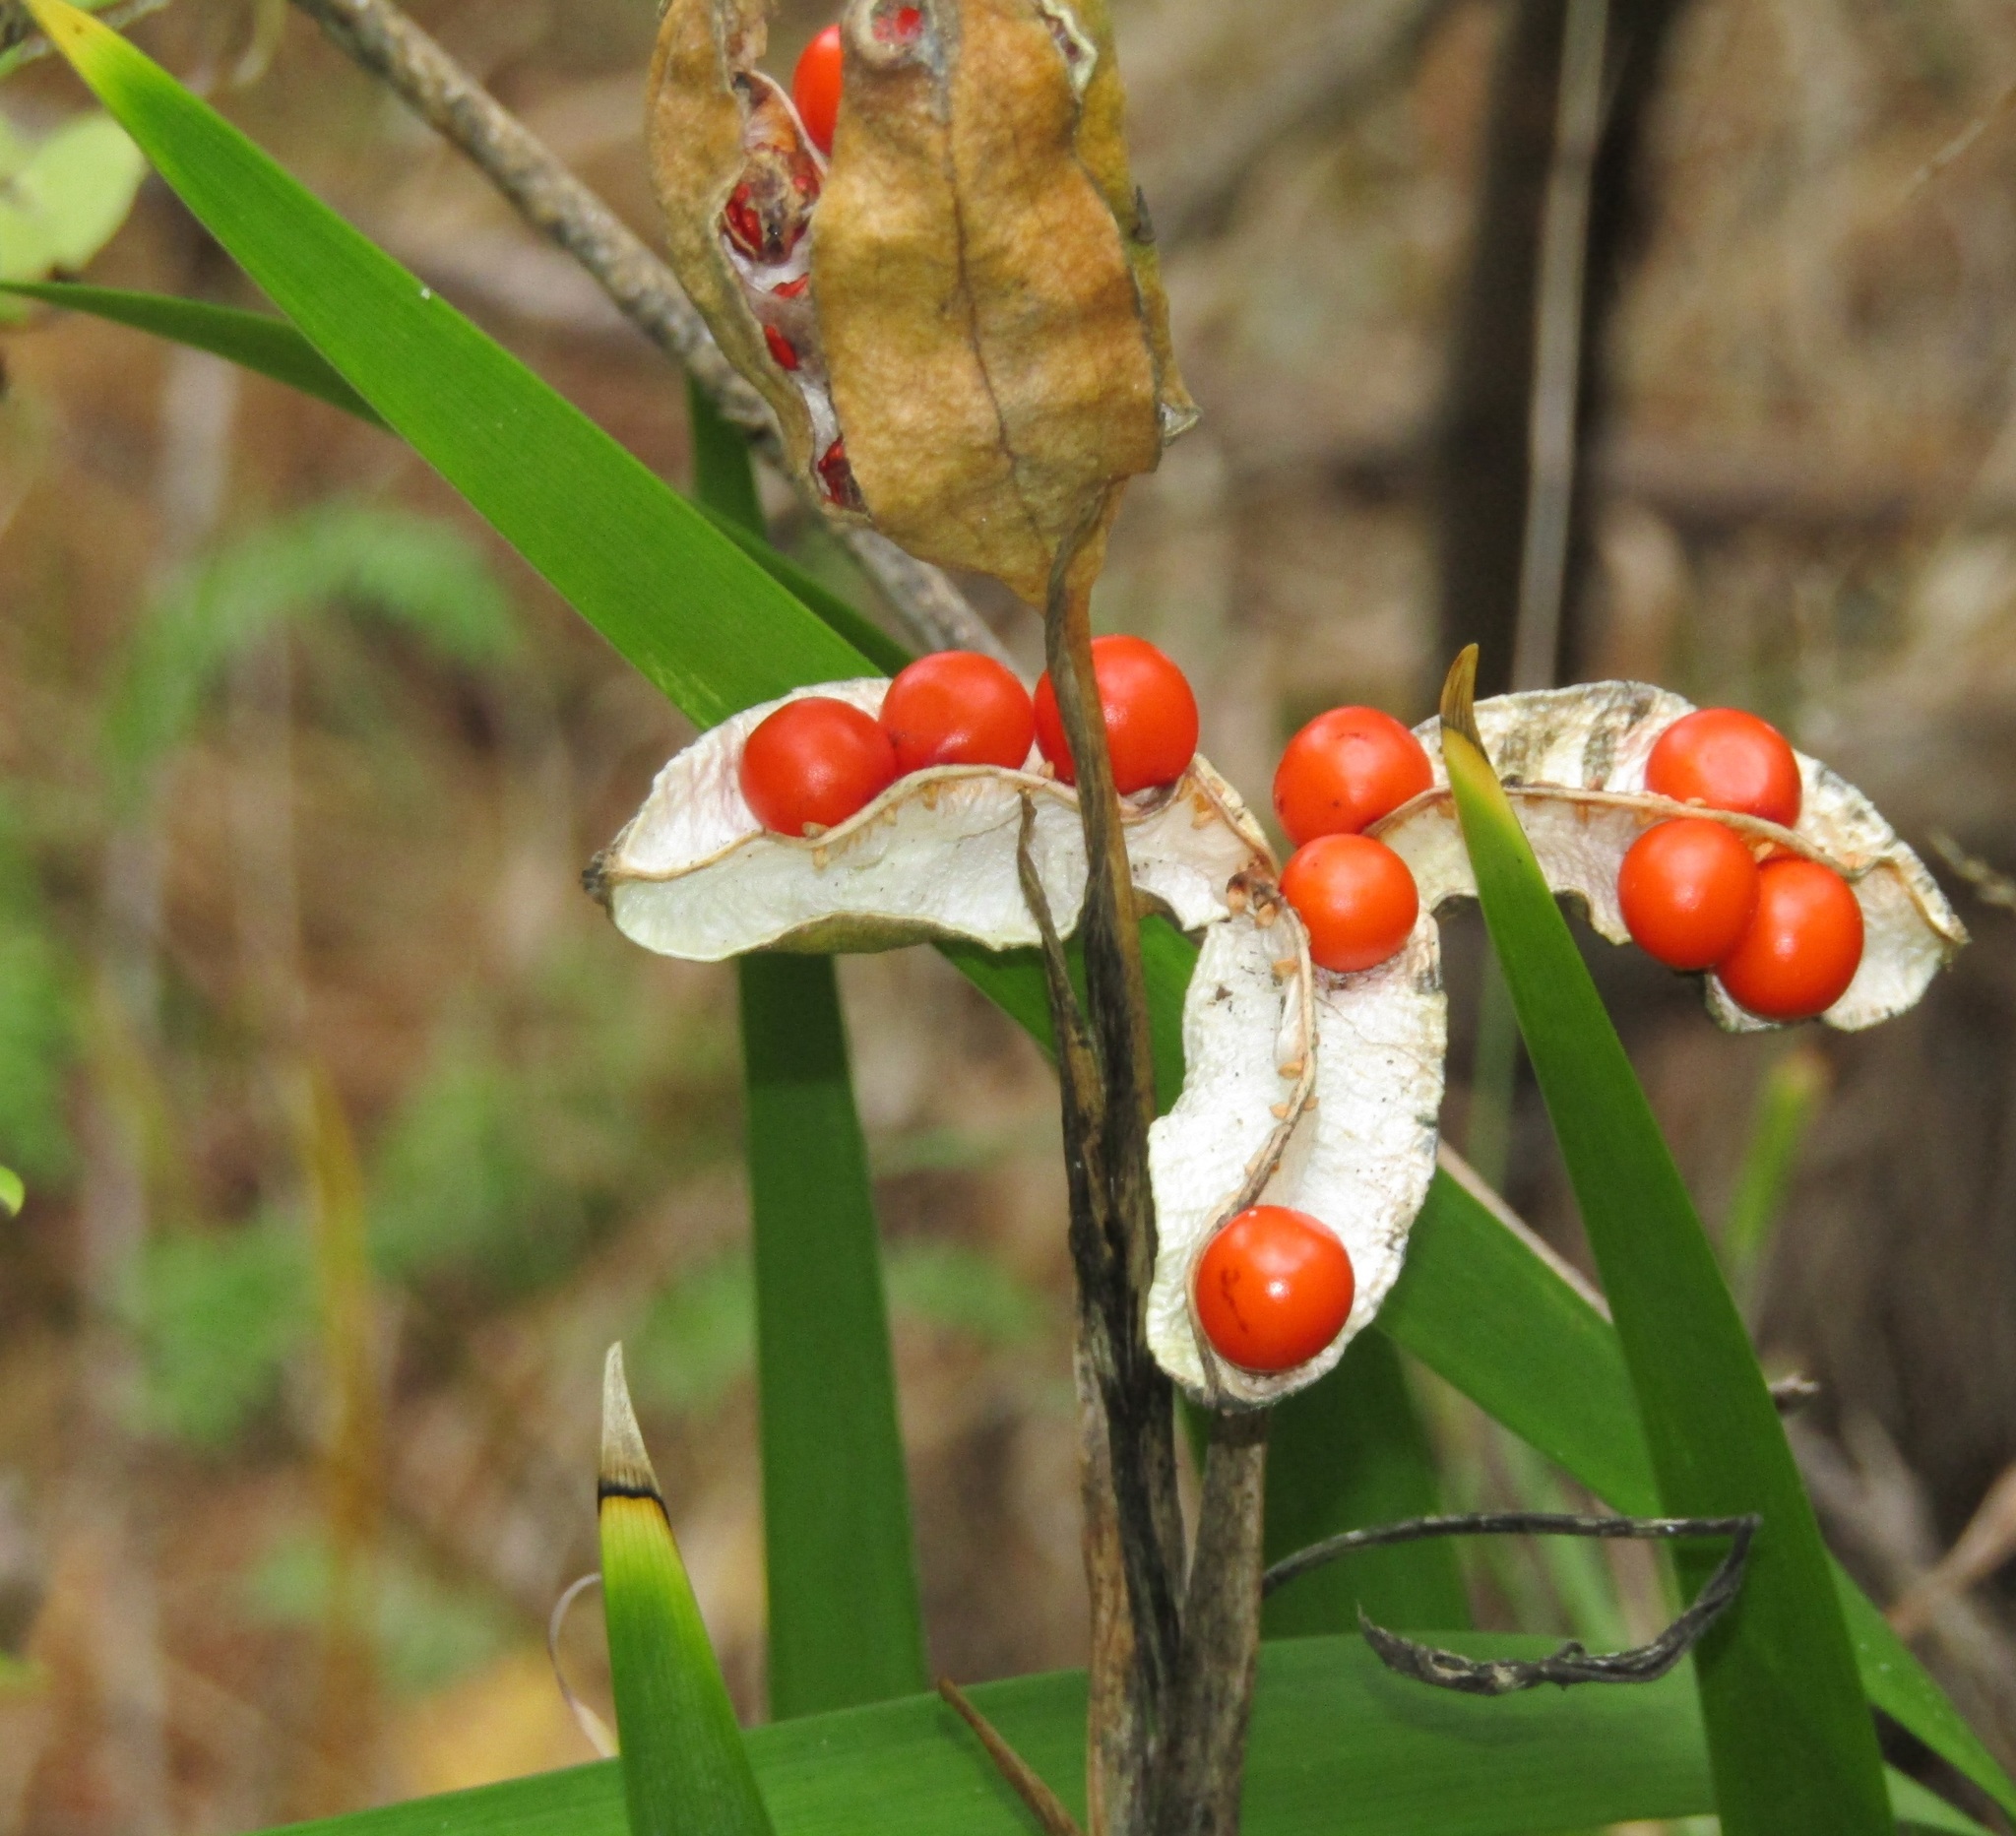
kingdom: Plantae
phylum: Tracheophyta
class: Liliopsida
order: Asparagales
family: Iridaceae
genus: Iris
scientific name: Iris foetidissima
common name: Stinking iris
